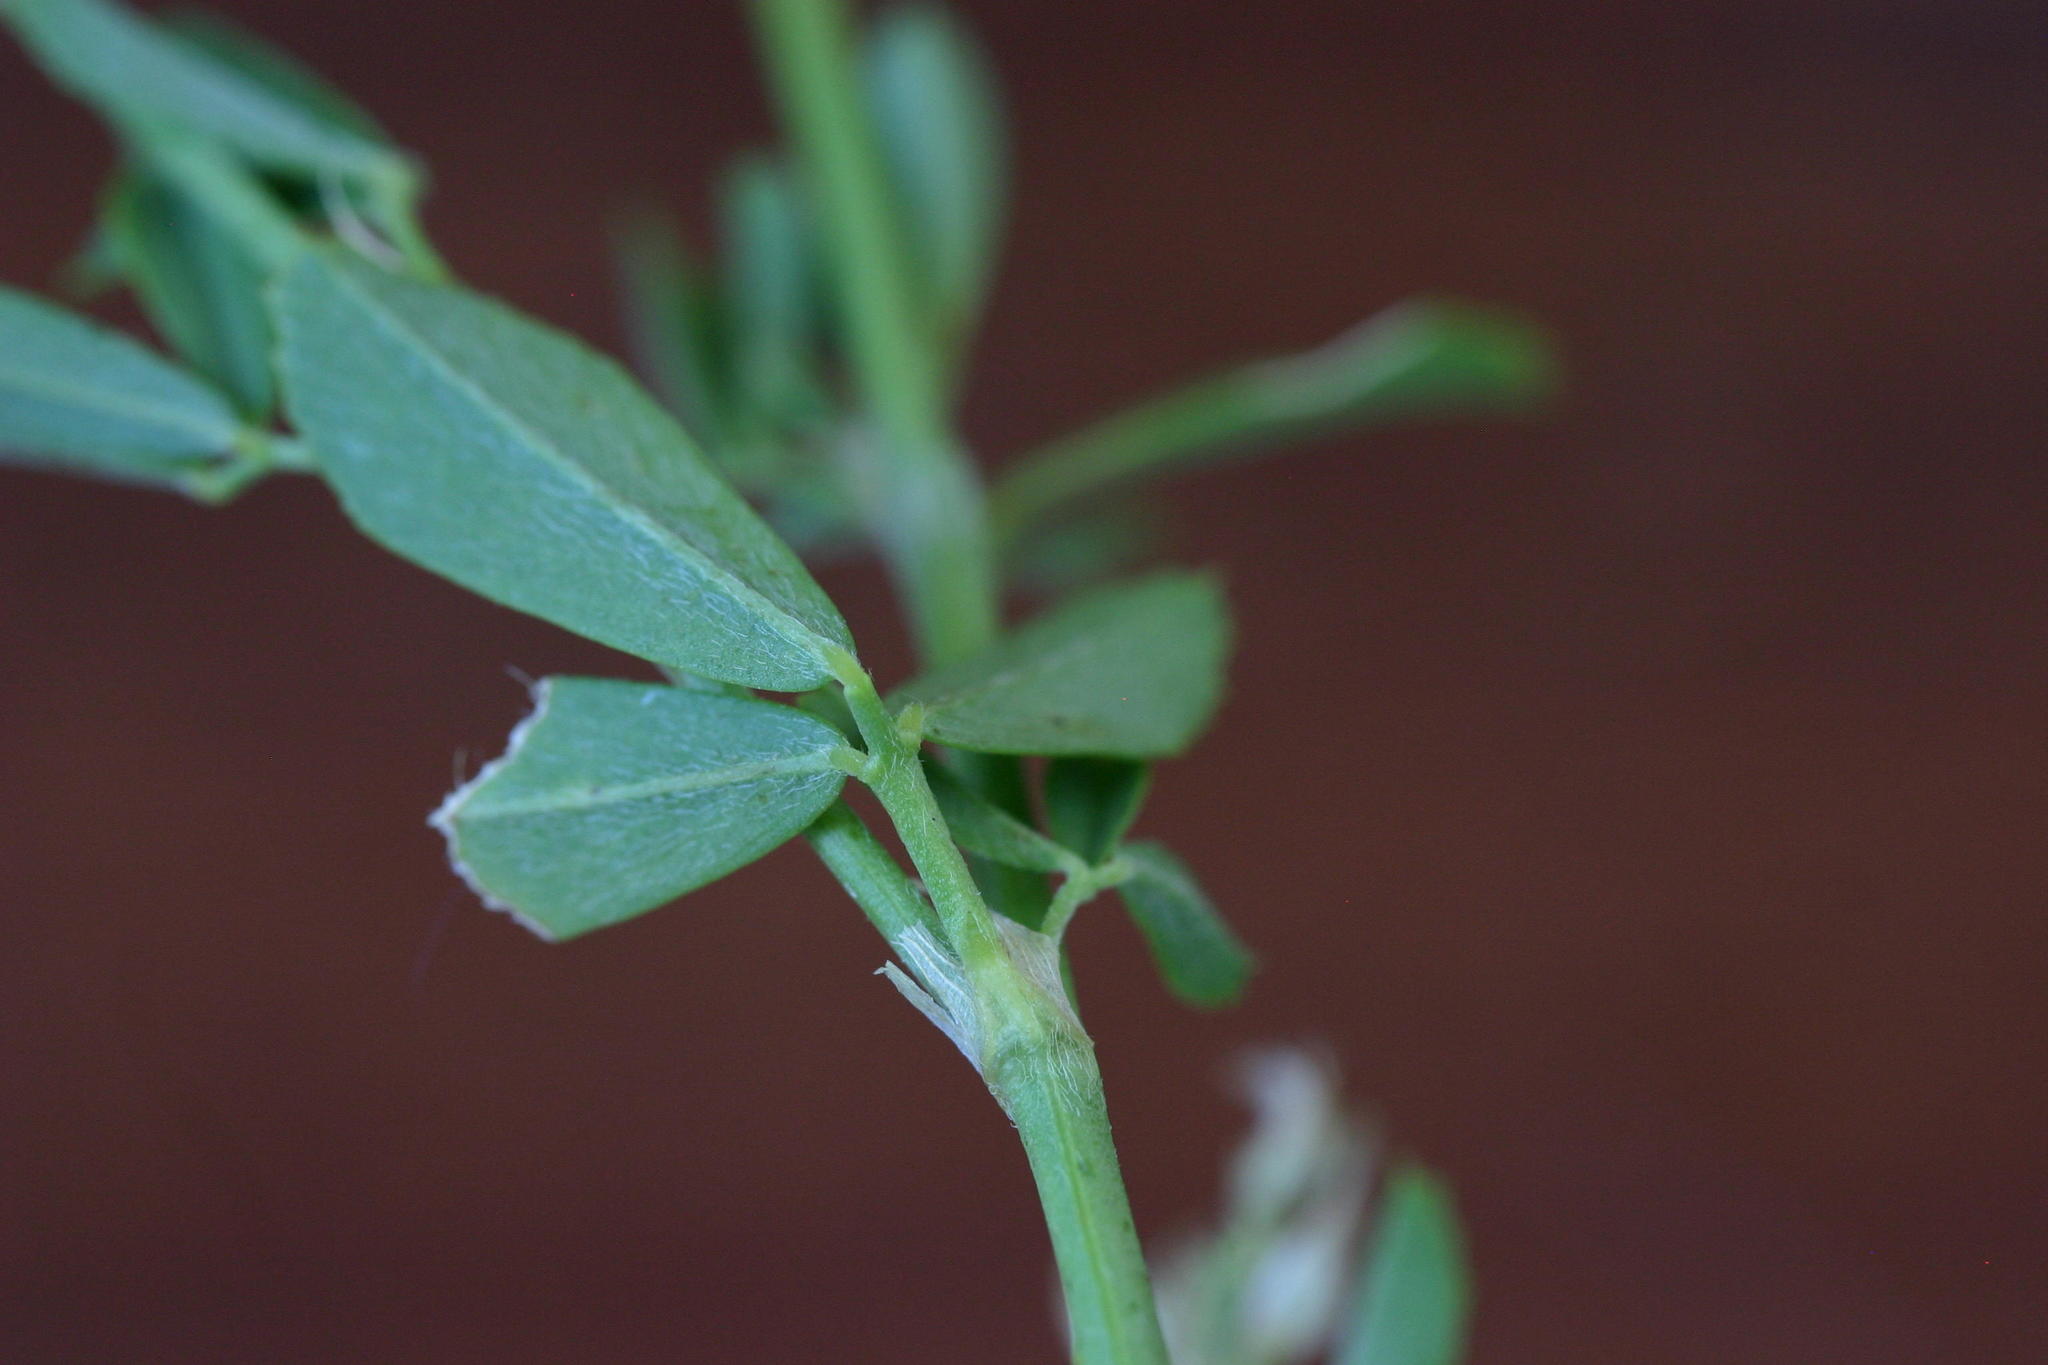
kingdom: Plantae
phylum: Tracheophyta
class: Magnoliopsida
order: Fabales
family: Fabaceae
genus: Medicago
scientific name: Medicago sativa
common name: Alfalfa
